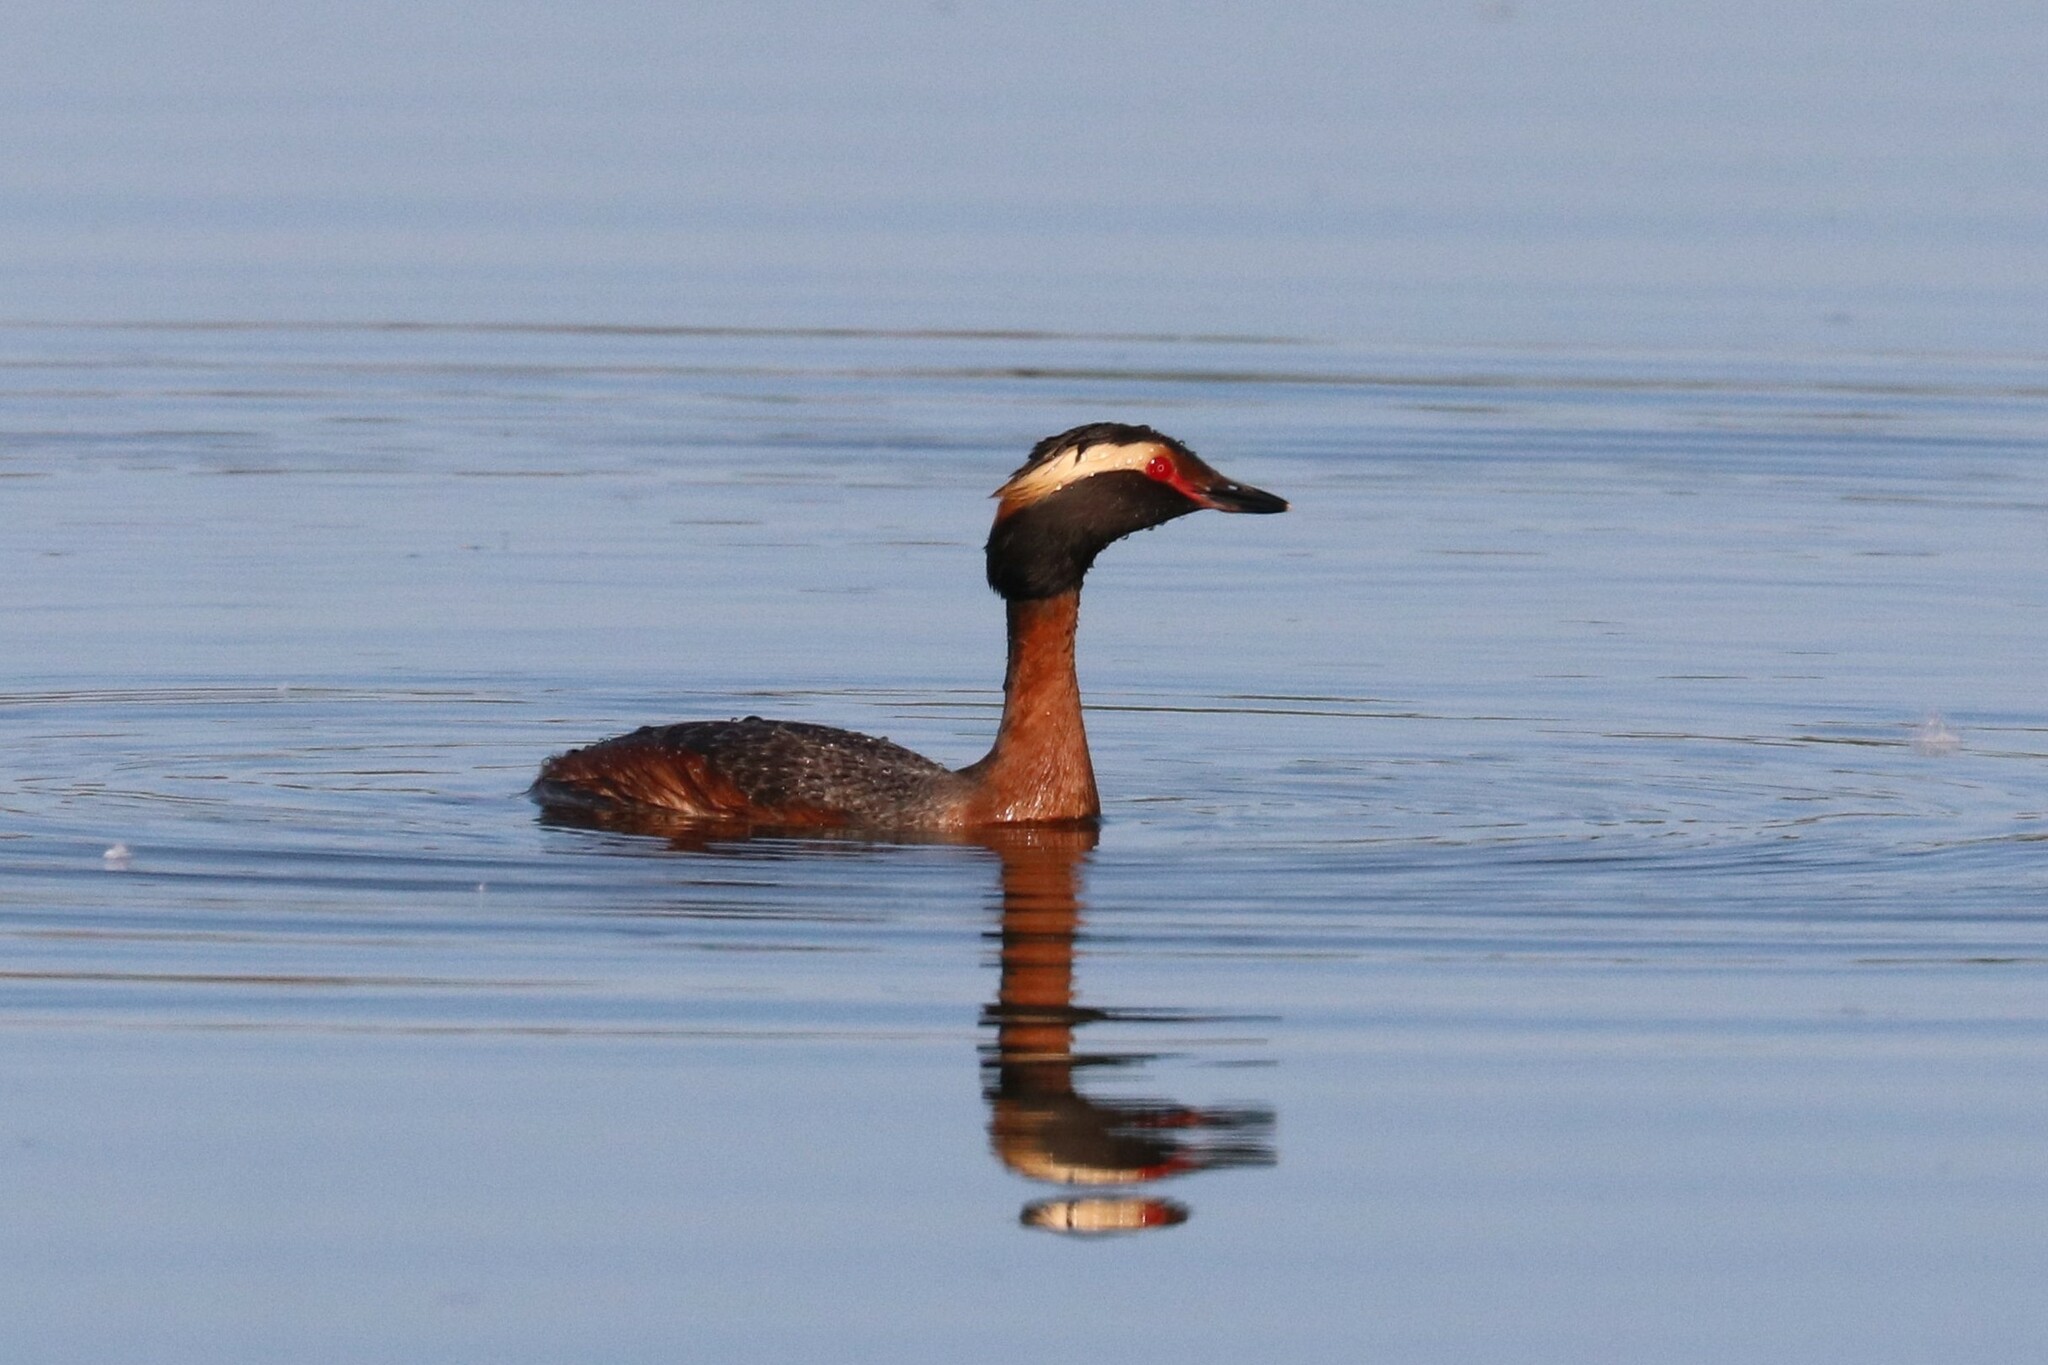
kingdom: Animalia
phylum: Chordata
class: Aves
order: Podicipediformes
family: Podicipedidae
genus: Podiceps
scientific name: Podiceps auritus
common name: Horned grebe
